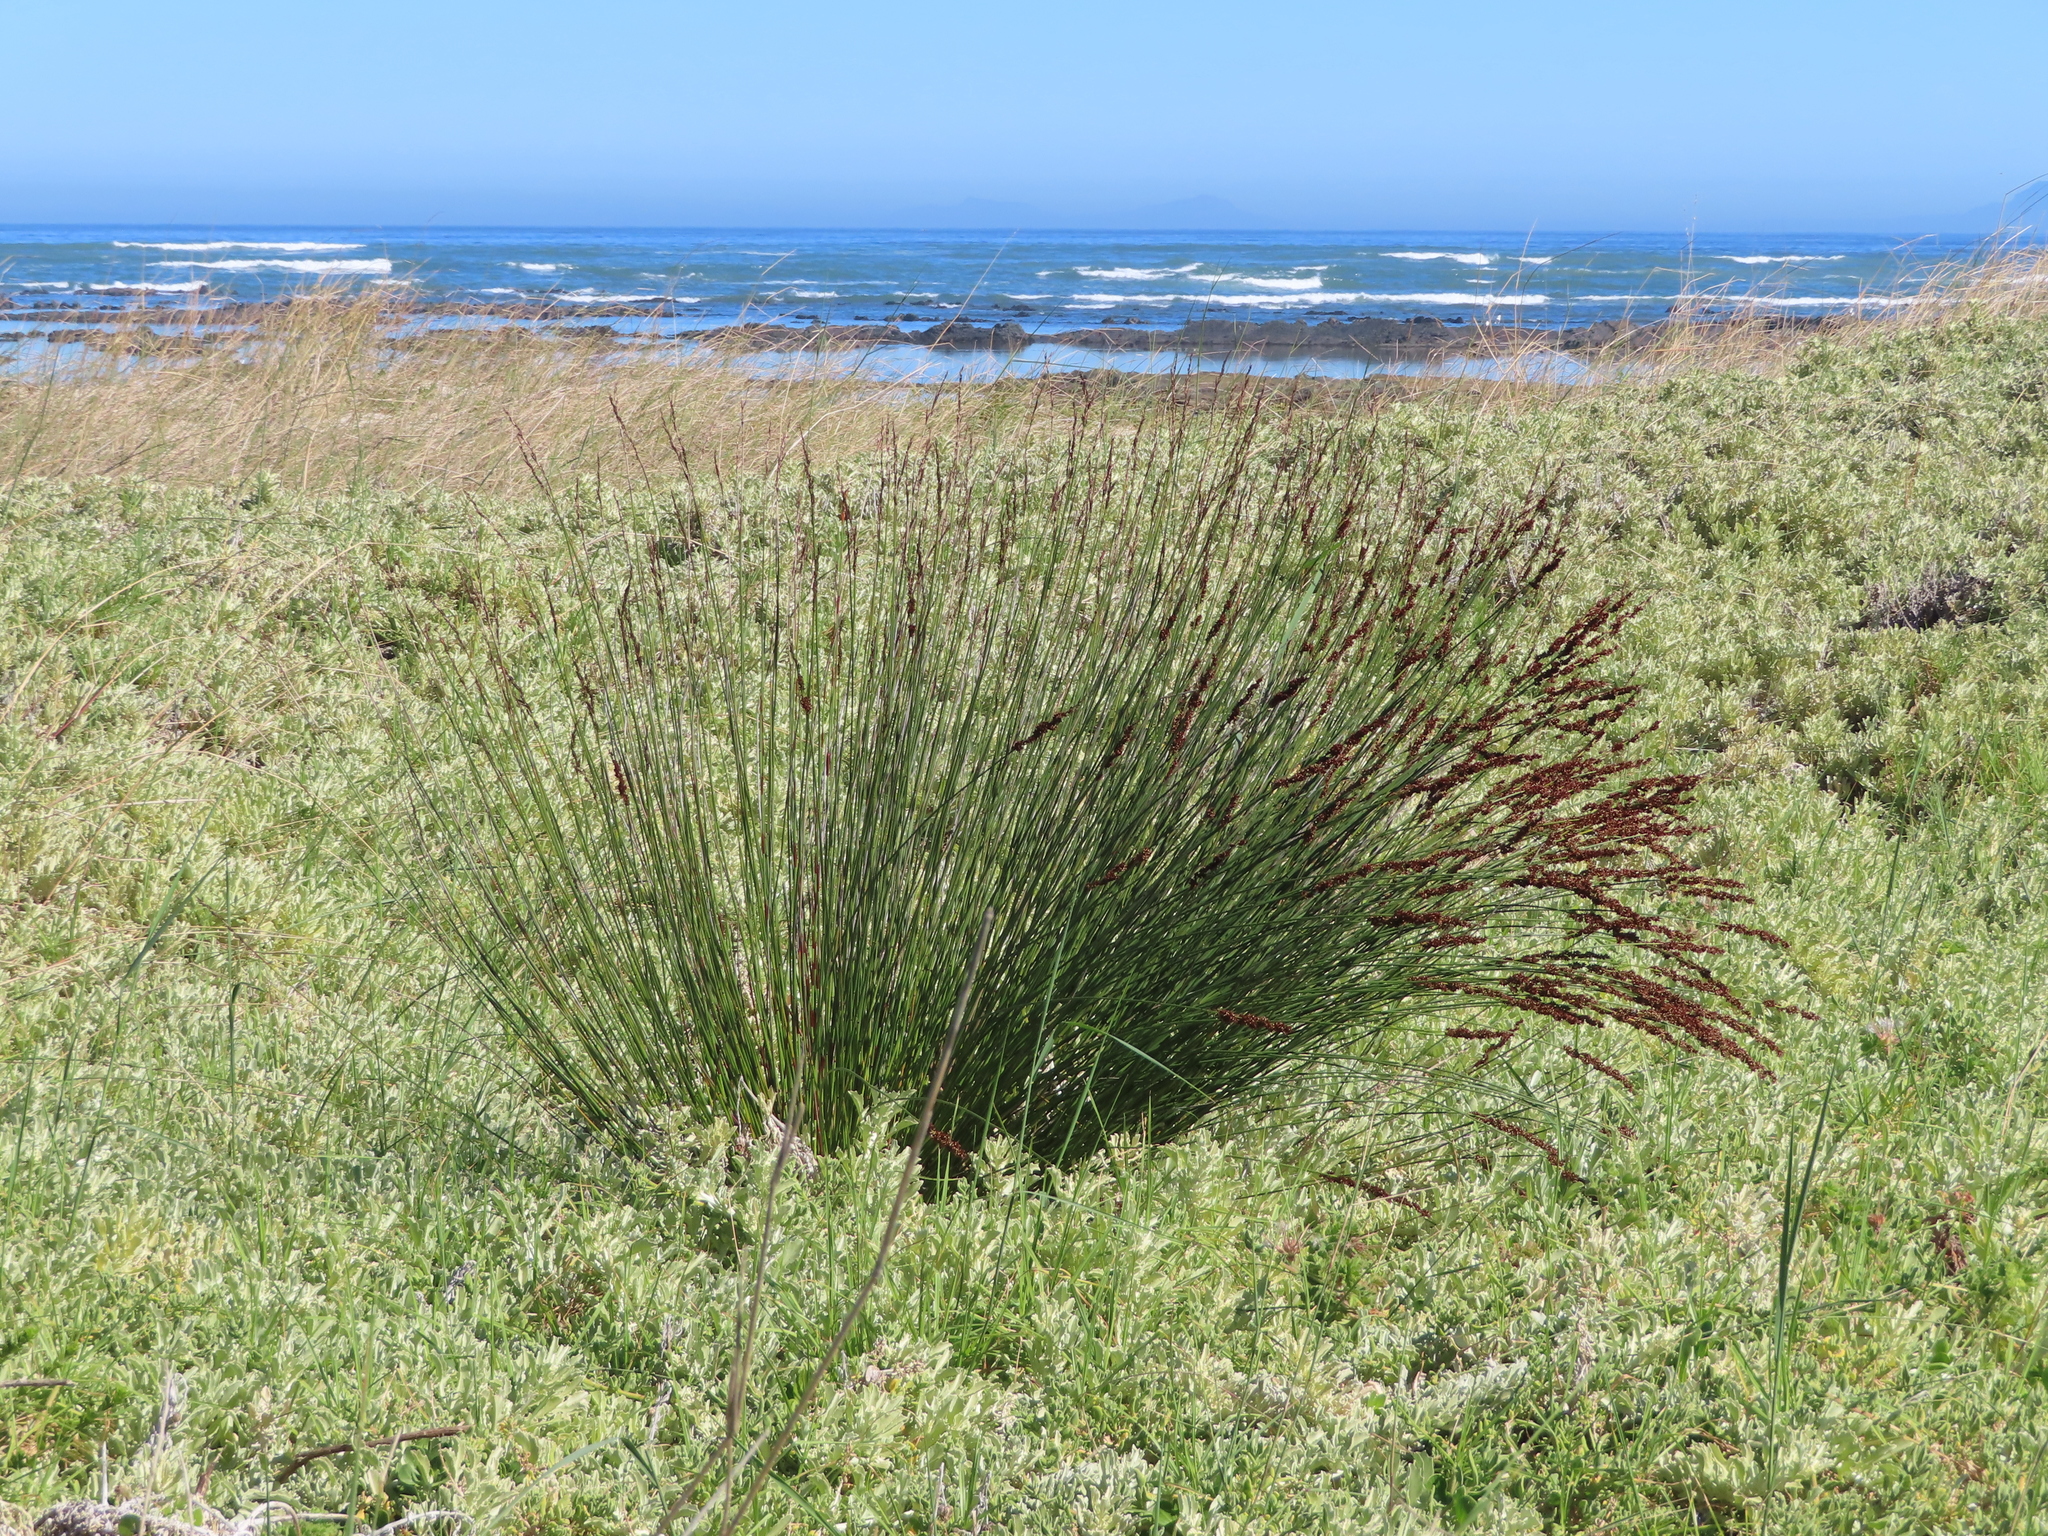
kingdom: Plantae
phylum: Tracheophyta
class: Liliopsida
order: Poales
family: Restionaceae
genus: Elegia
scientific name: Elegia tectorum
